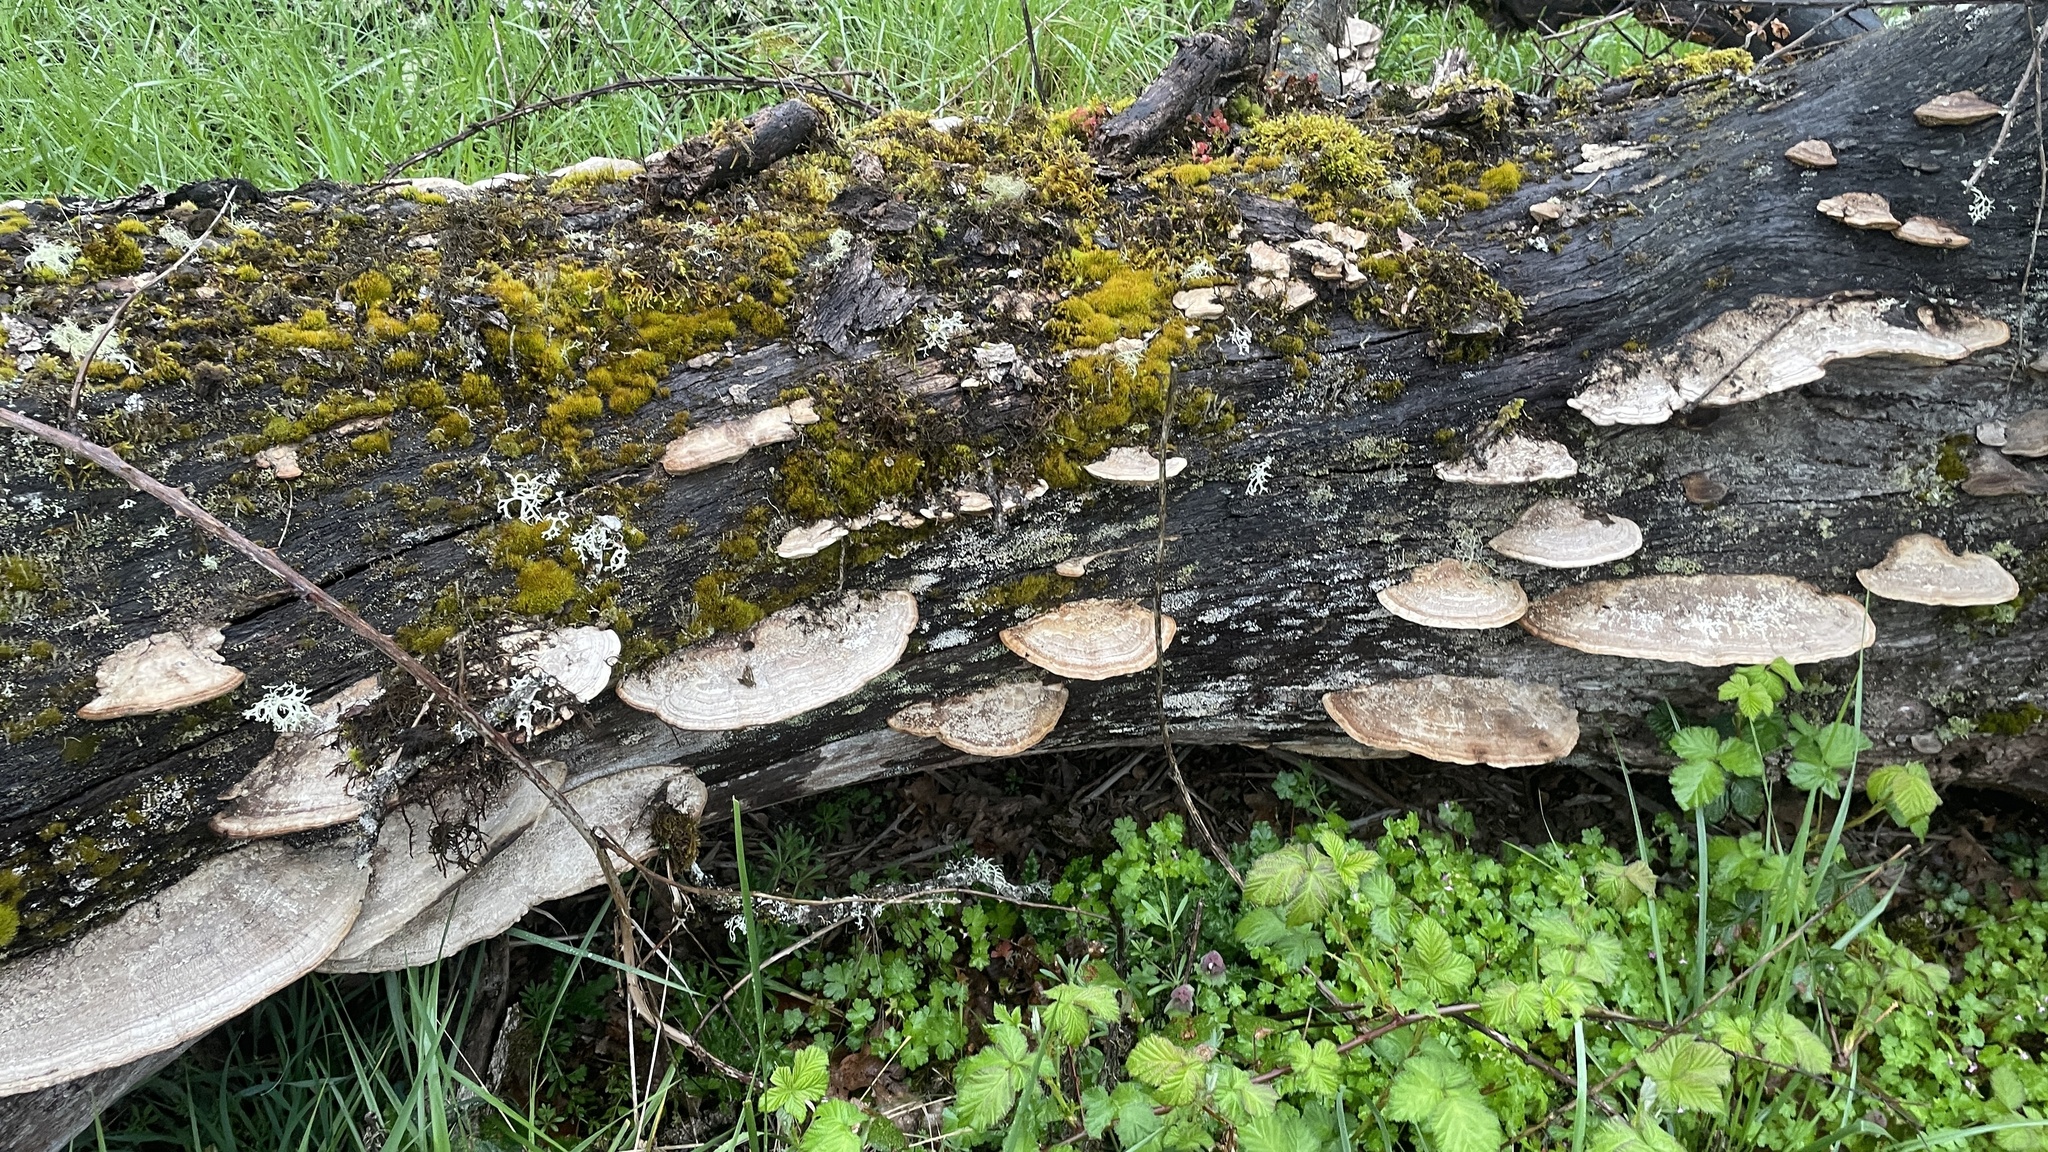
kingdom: Fungi
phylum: Basidiomycota
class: Agaricomycetes
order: Polyporales
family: Fomitopsidaceae
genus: Fomitopsis
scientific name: Fomitopsis
